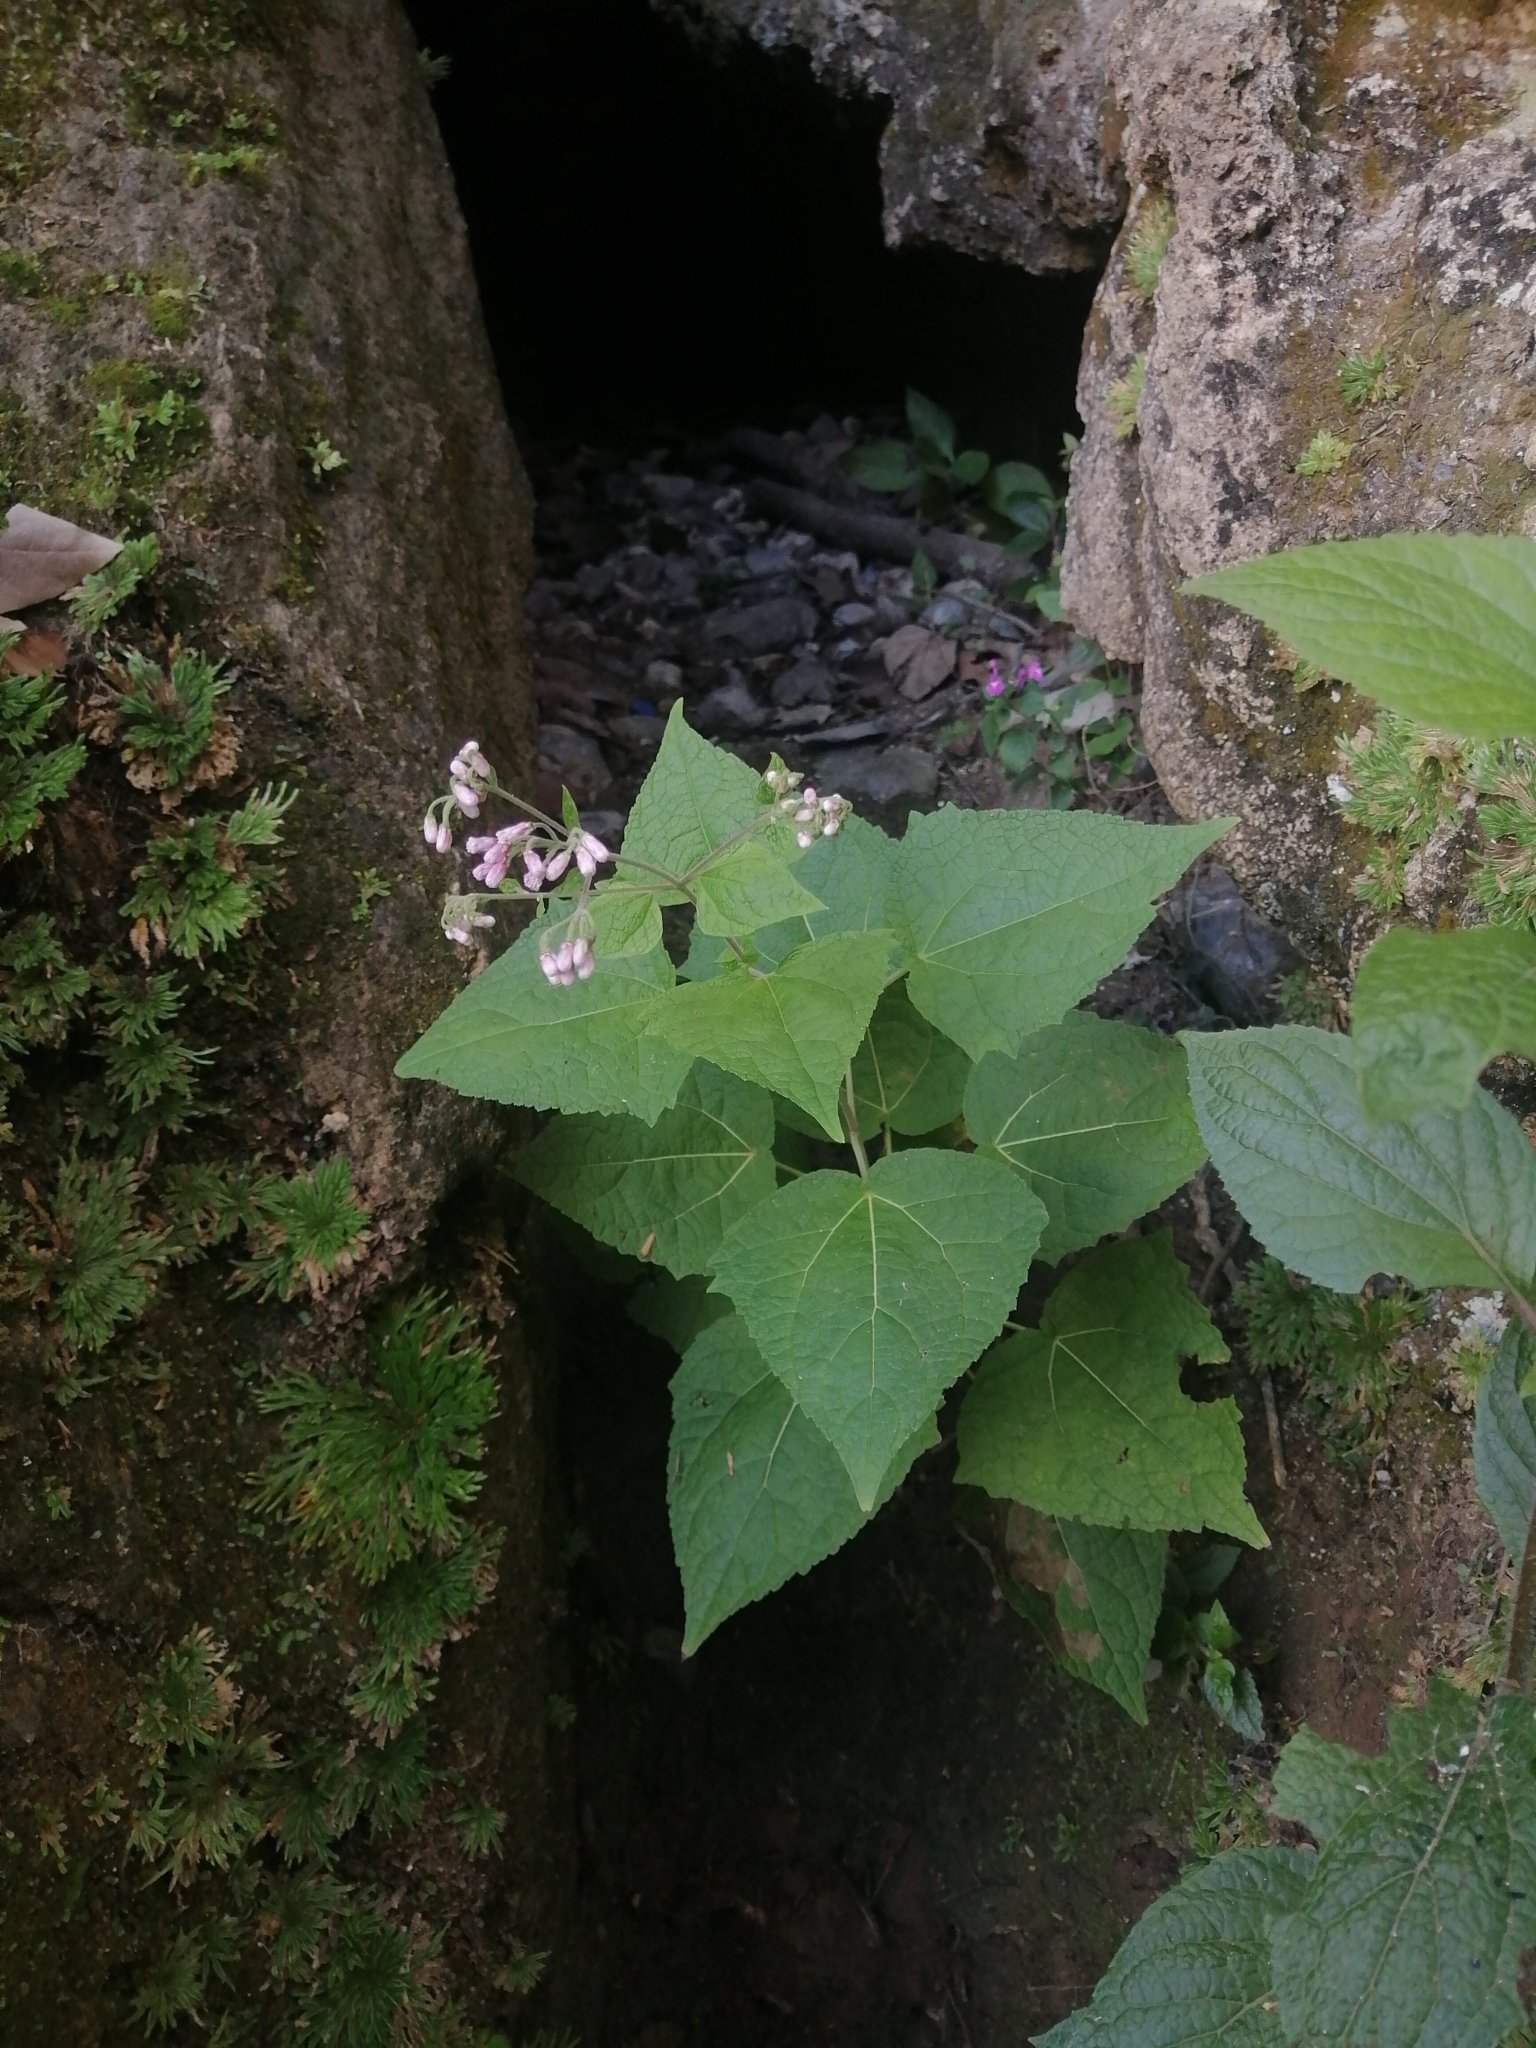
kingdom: Plantae
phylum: Tracheophyta
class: Magnoliopsida
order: Asterales
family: Asteraceae
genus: Peteravenia
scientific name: Peteravenia malvifolia
